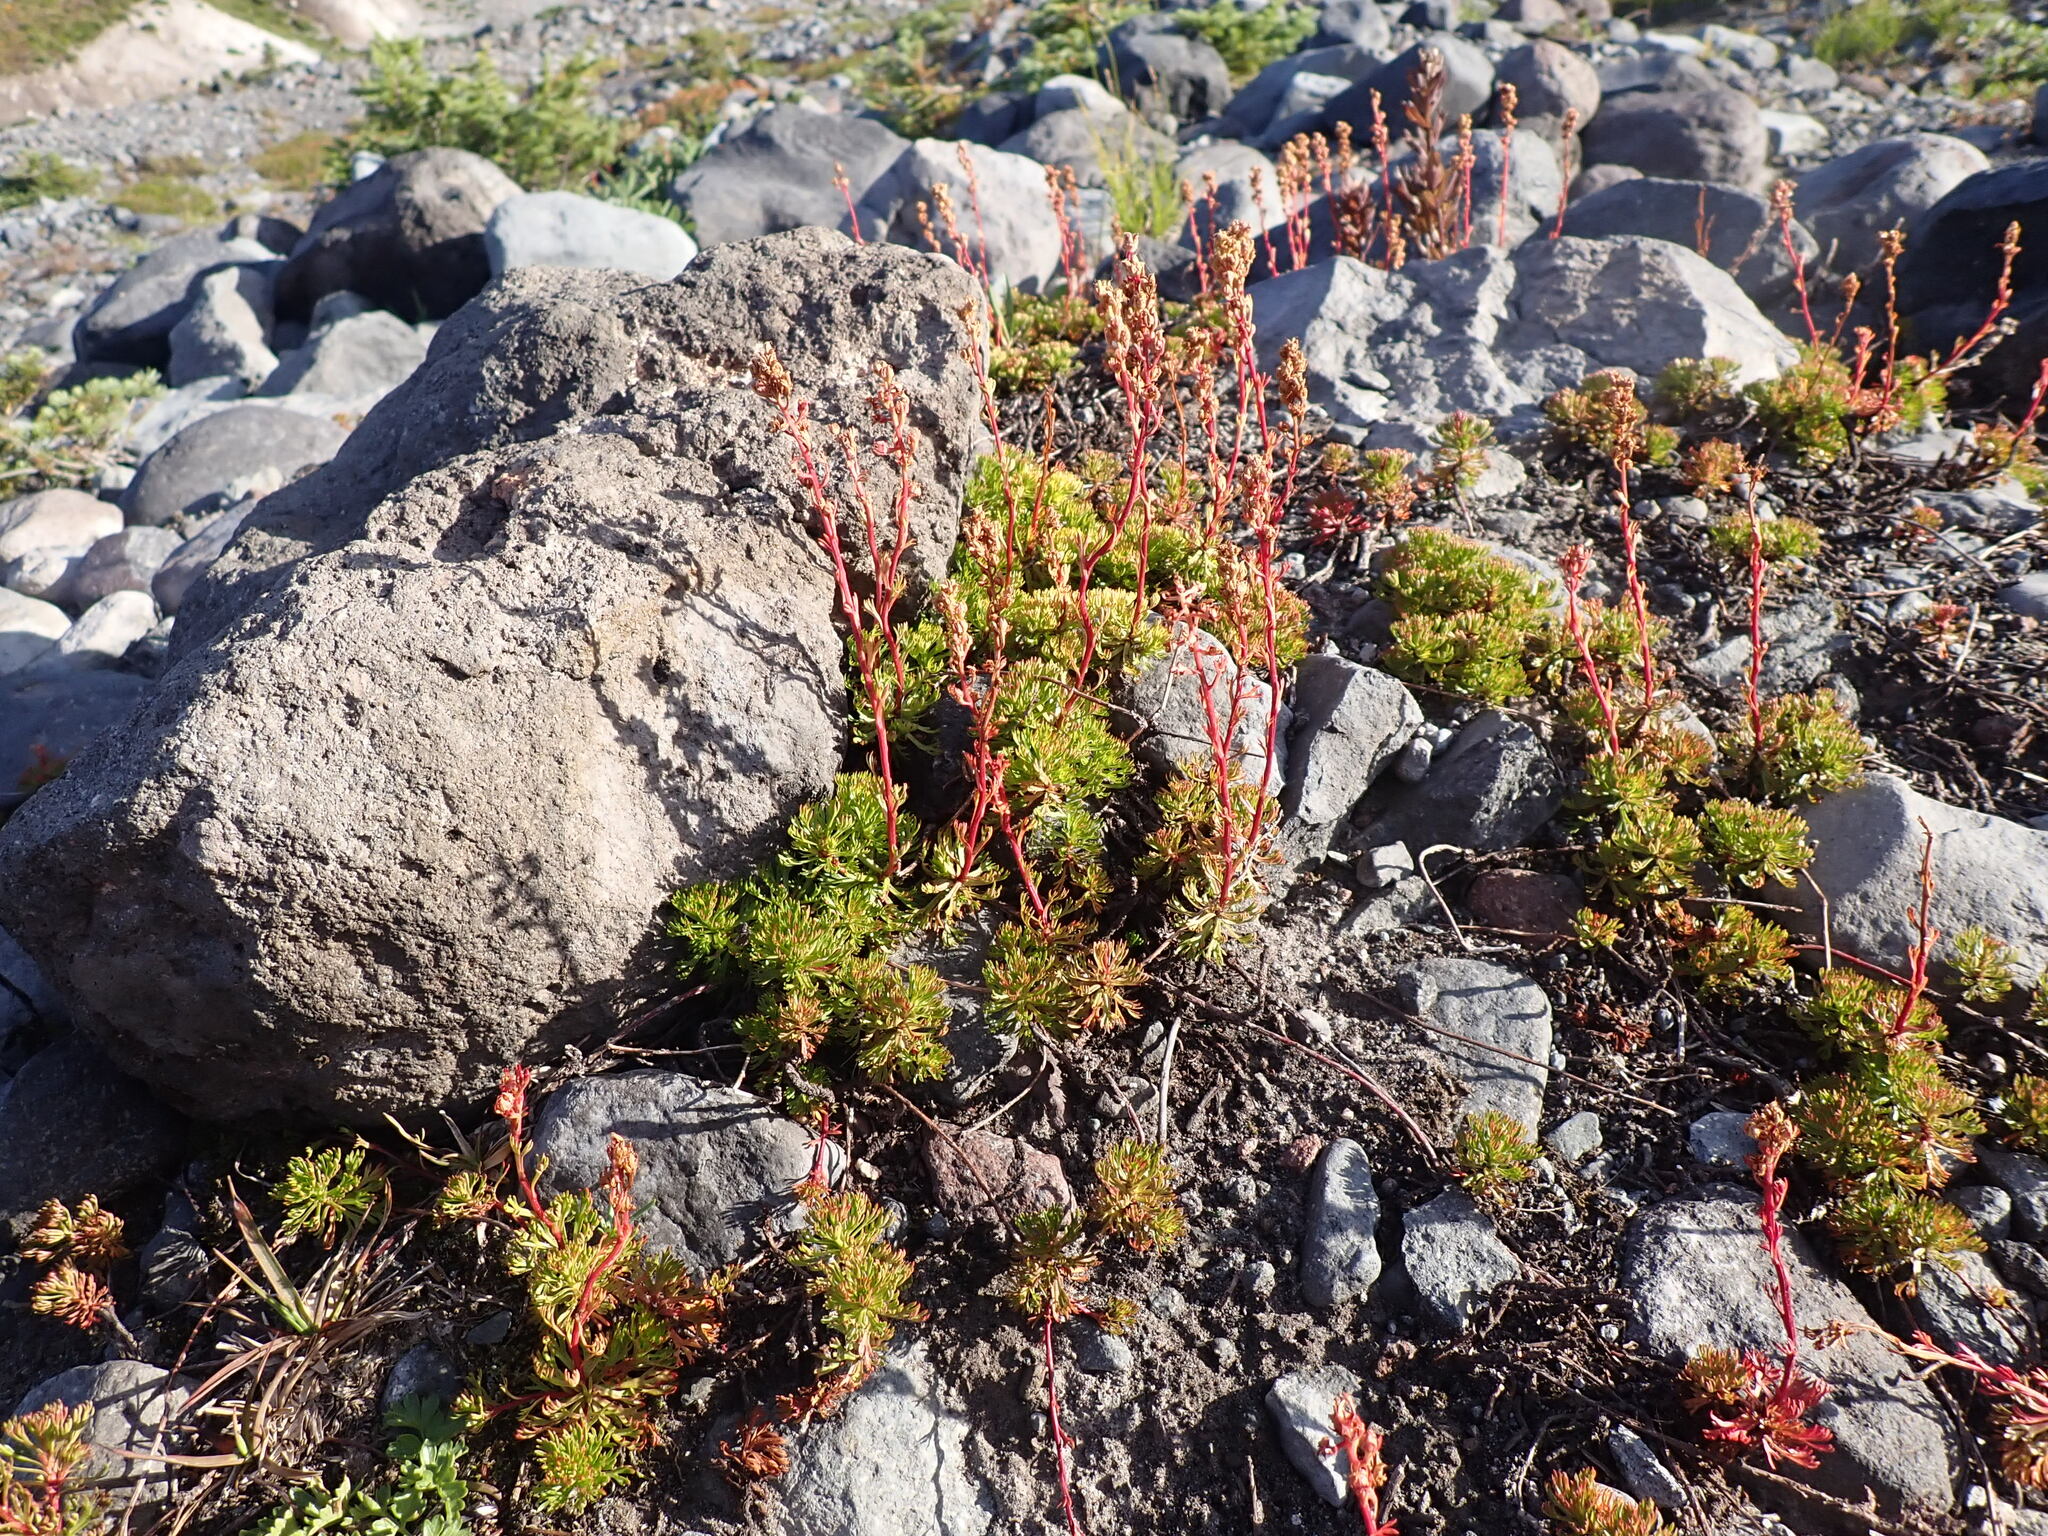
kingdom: Plantae
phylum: Tracheophyta
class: Magnoliopsida
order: Rosales
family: Rosaceae
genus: Luetkea
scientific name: Luetkea pectinata
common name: Partridgefoot
